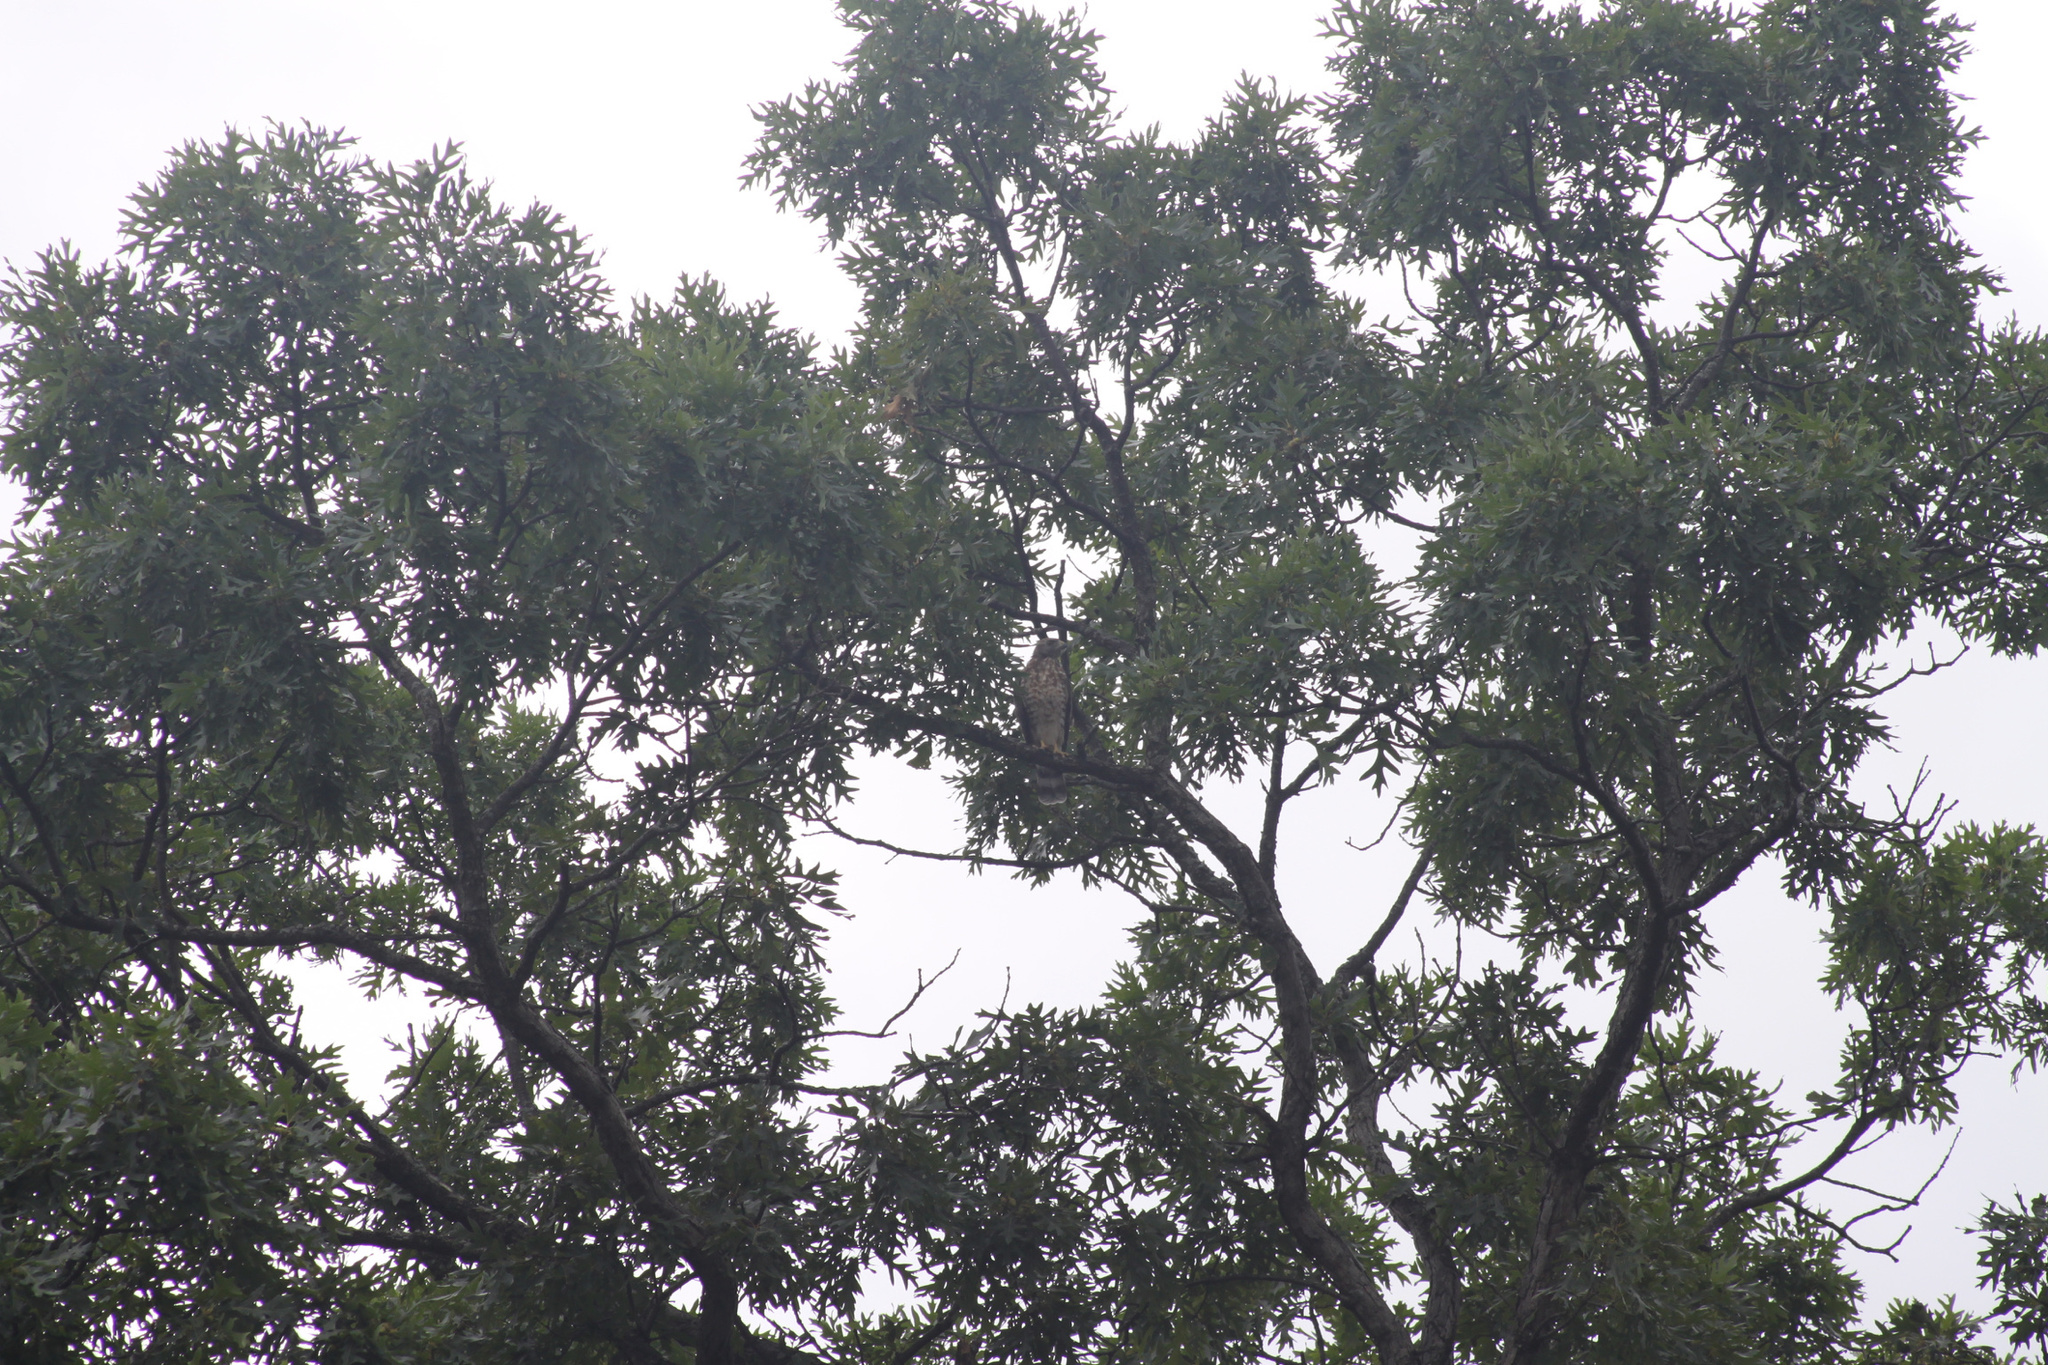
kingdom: Animalia
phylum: Chordata
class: Aves
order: Accipitriformes
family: Accipitridae
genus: Buteo
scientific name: Buteo platypterus
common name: Broad-winged hawk
